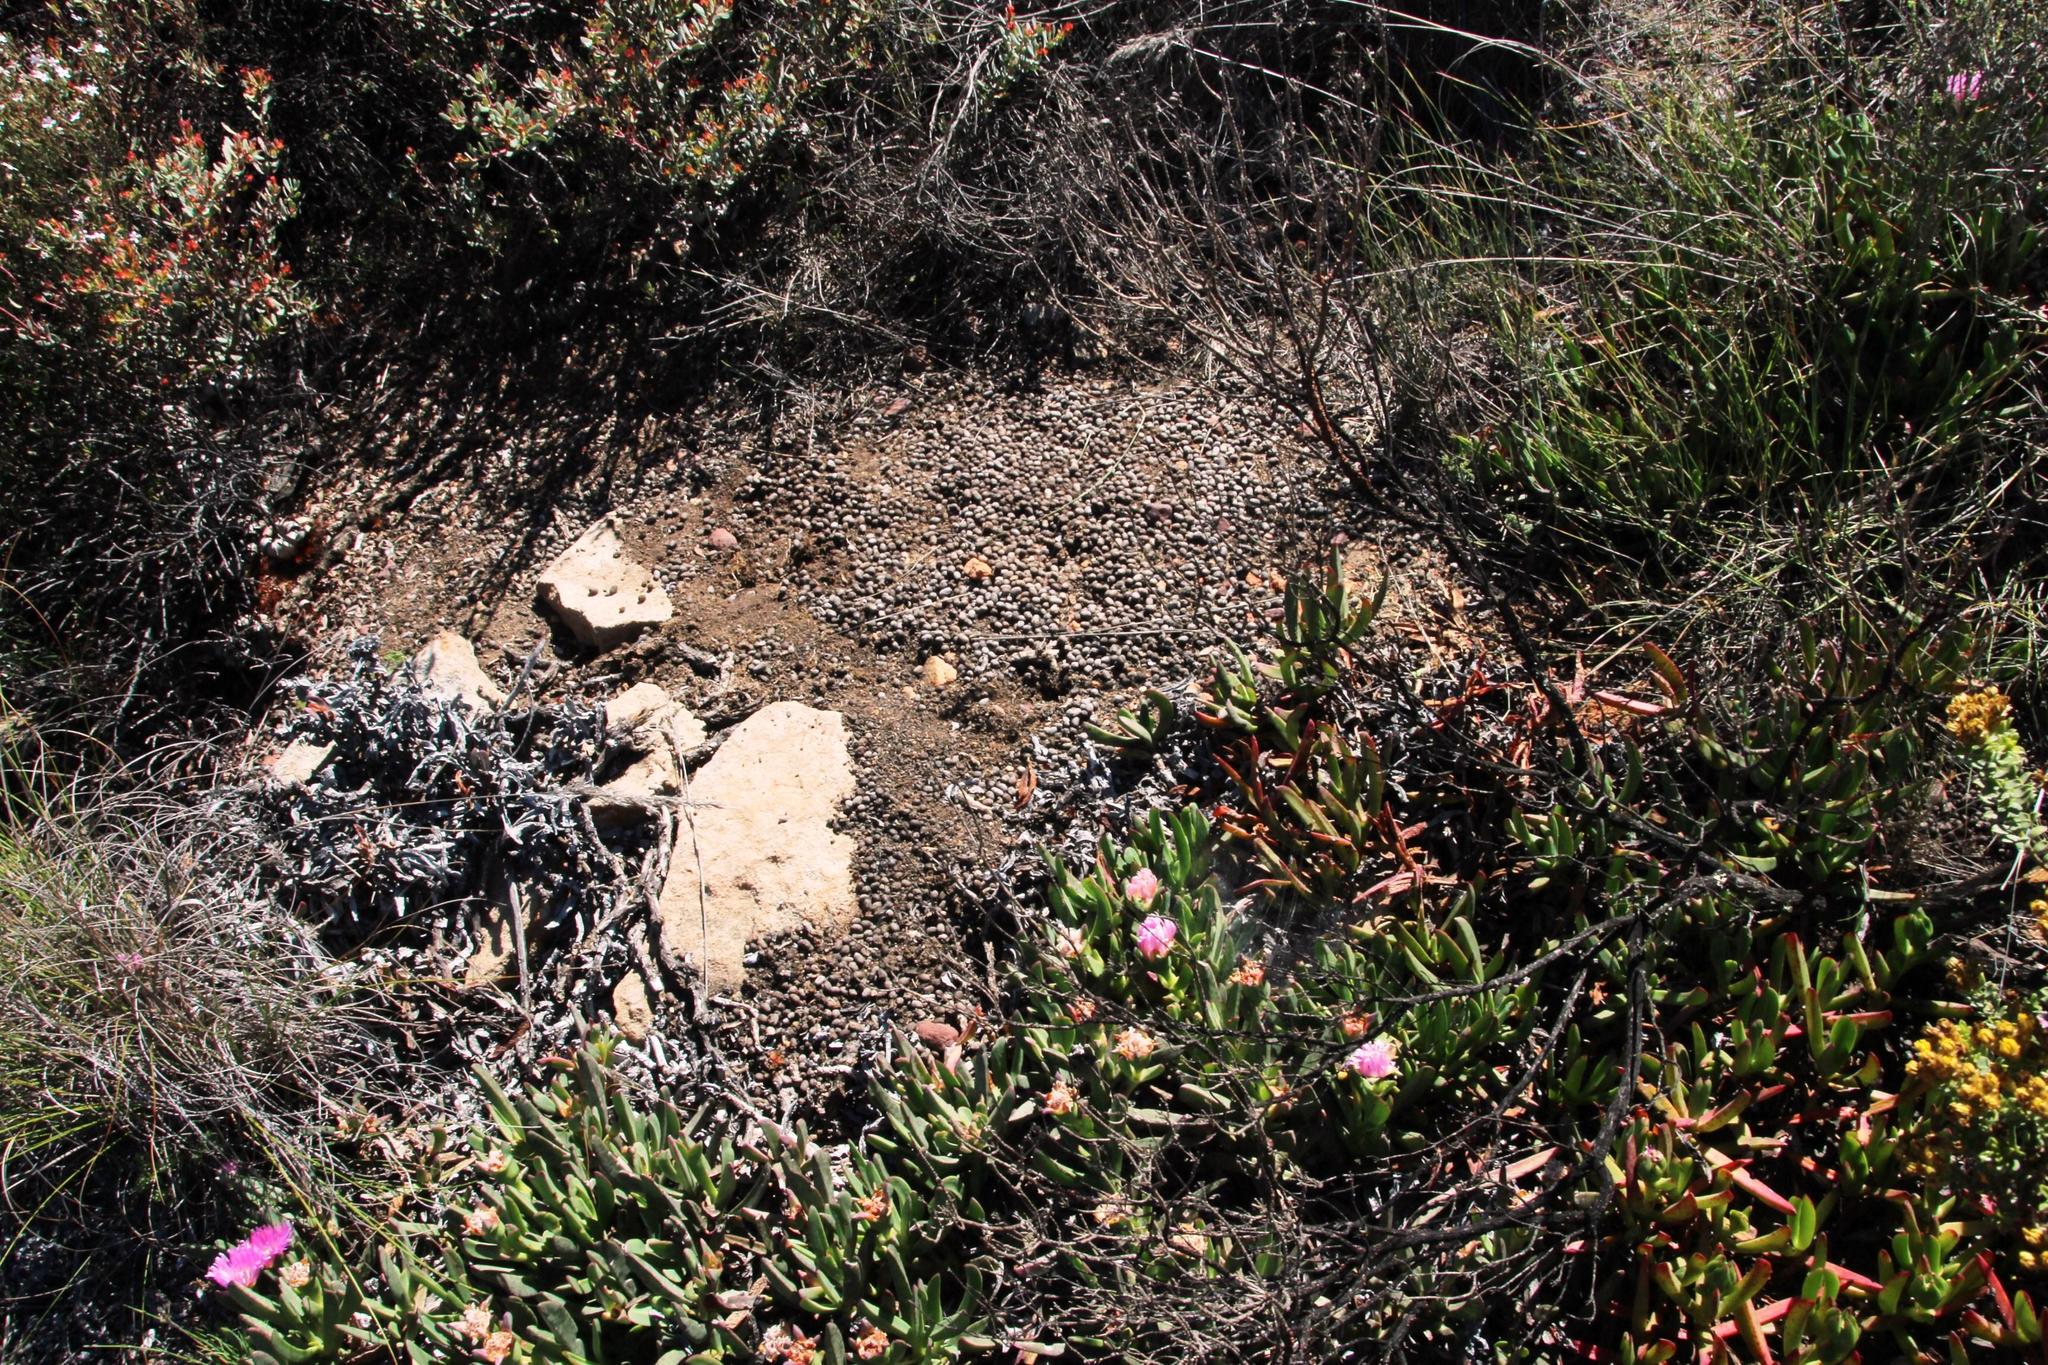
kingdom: Animalia
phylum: Chordata
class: Mammalia
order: Artiodactyla
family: Bovidae
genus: Oreotragus
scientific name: Oreotragus oreotragus
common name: Klipspringer
